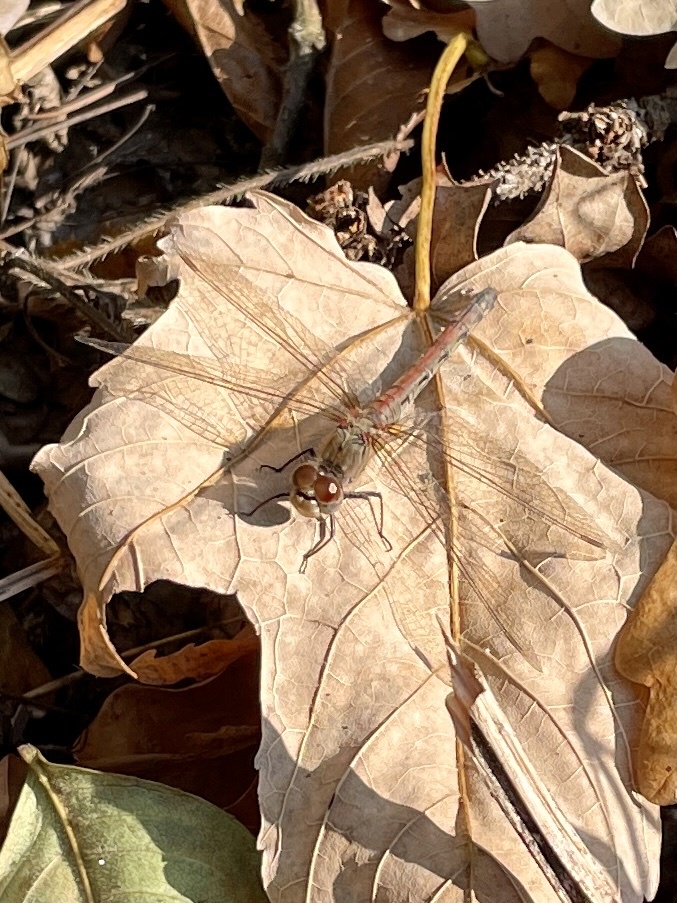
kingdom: Animalia
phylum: Arthropoda
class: Insecta
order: Odonata
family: Libellulidae
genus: Sympetrum
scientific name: Sympetrum striolatum
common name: Common darter
